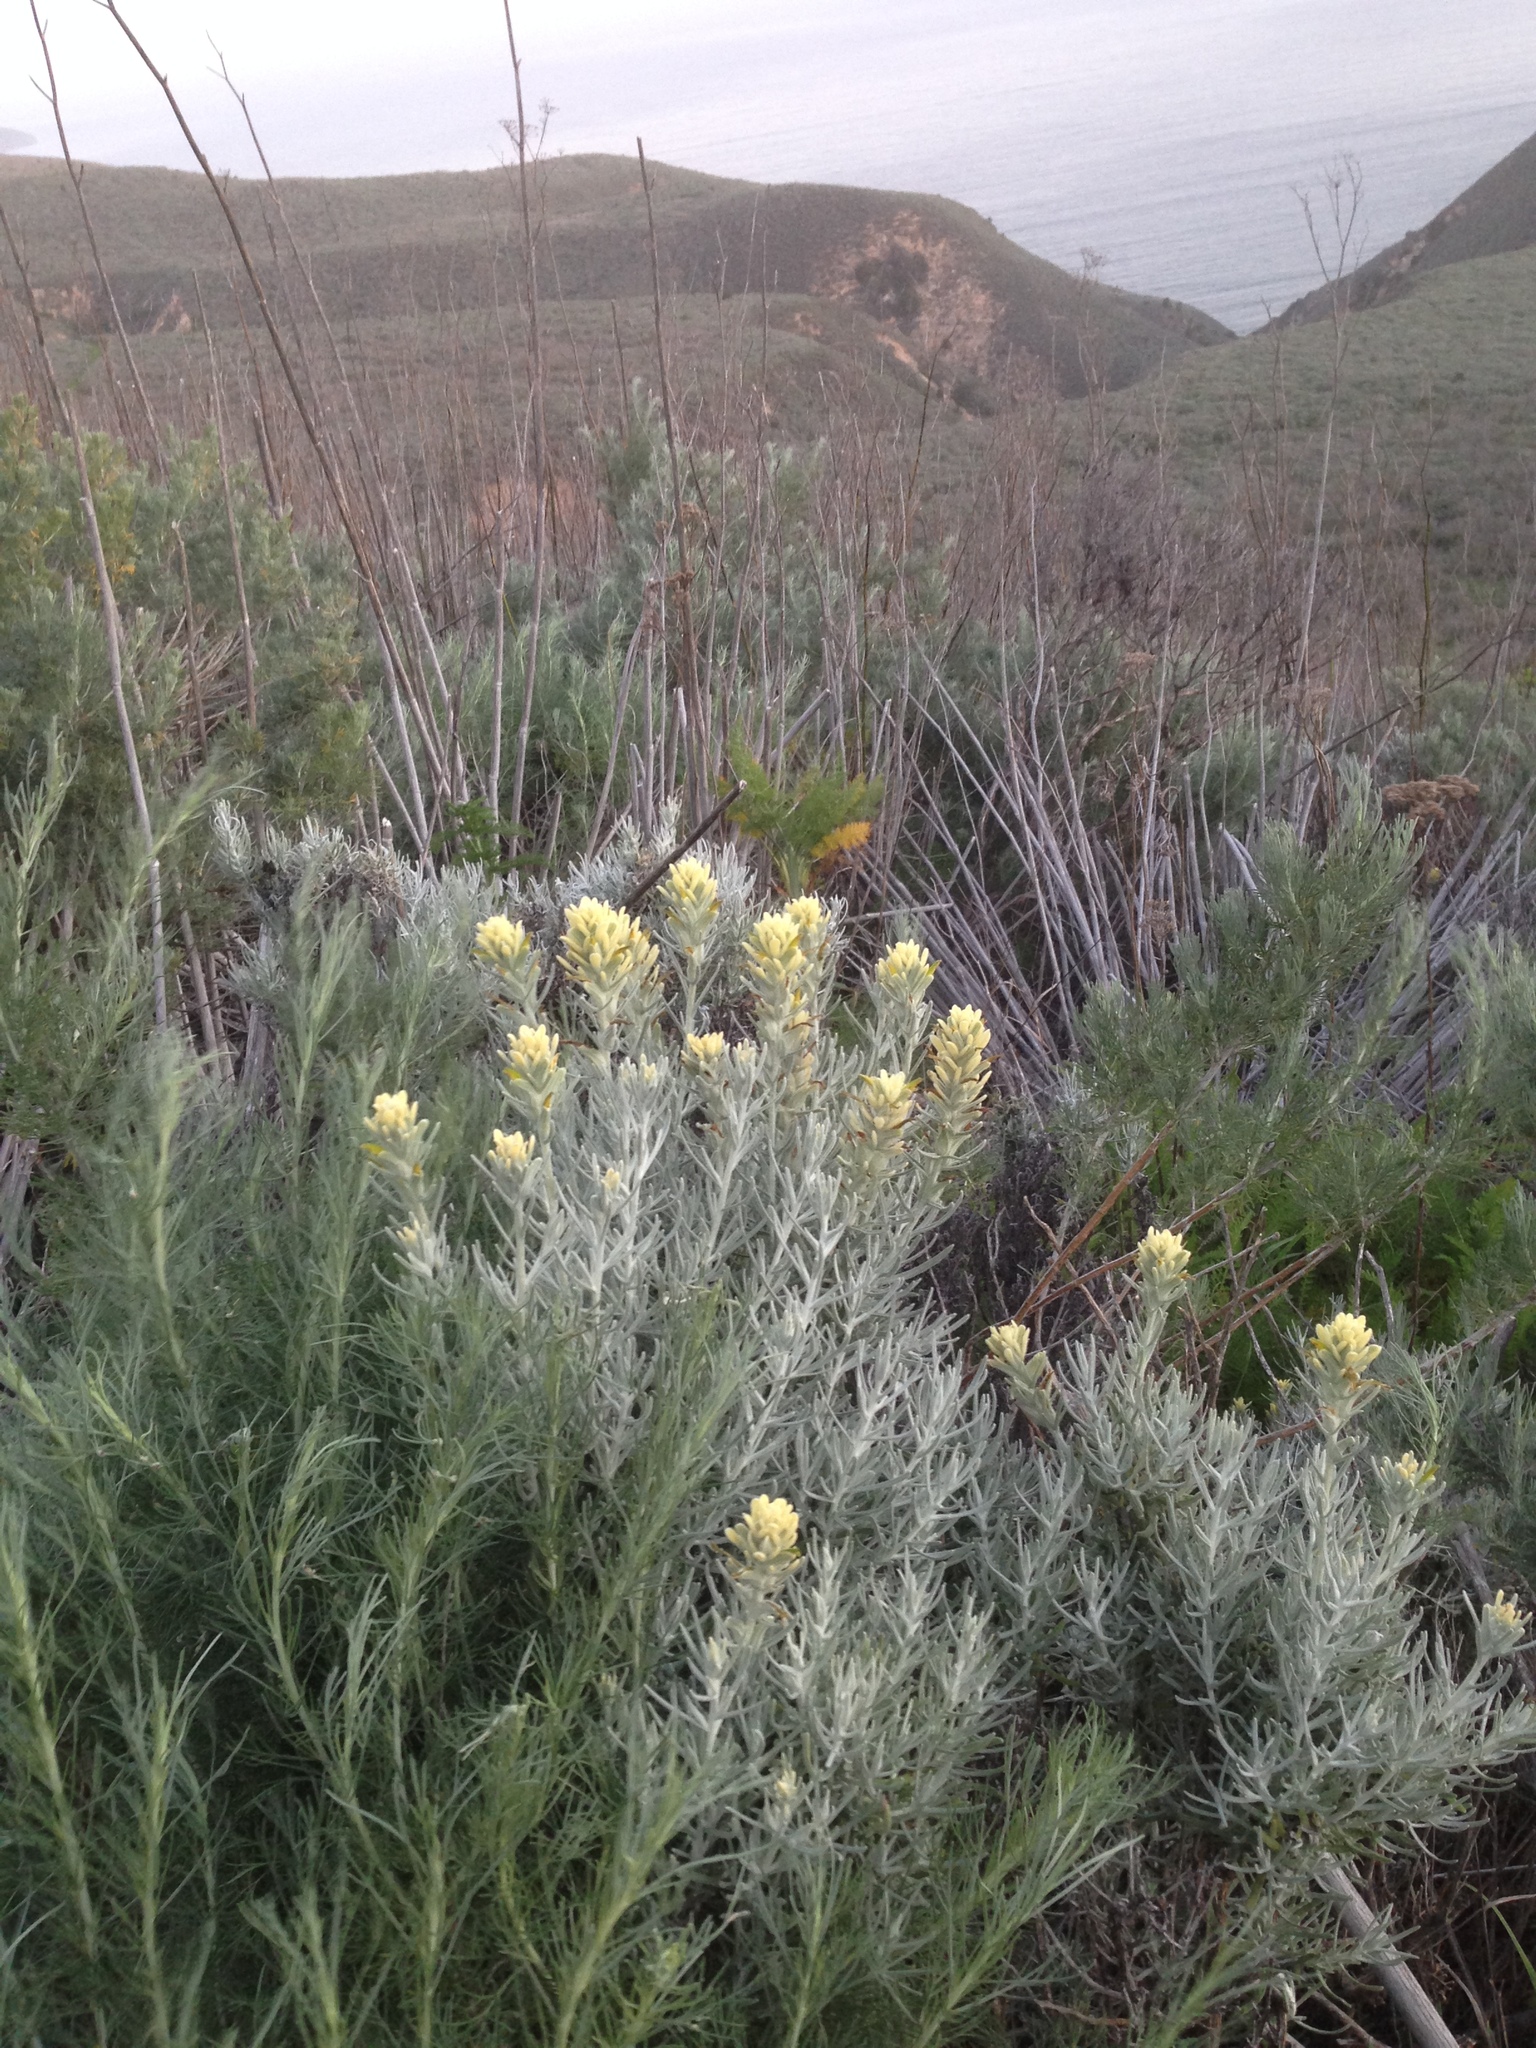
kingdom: Plantae
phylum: Tracheophyta
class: Magnoliopsida
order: Lamiales
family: Orobanchaceae
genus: Castilleja
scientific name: Castilleja hololeuca
